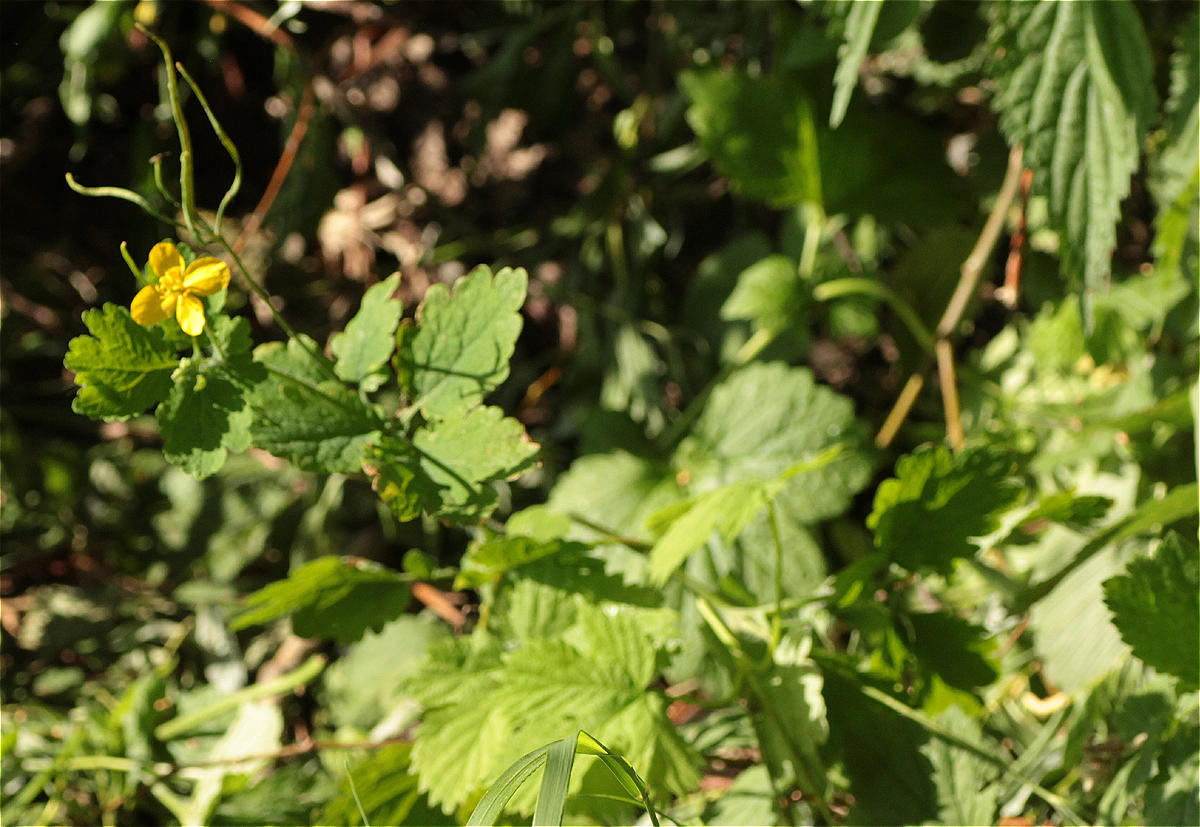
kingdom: Plantae
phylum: Tracheophyta
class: Magnoliopsida
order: Ranunculales
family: Papaveraceae
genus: Chelidonium
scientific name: Chelidonium majus
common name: Greater celandine
